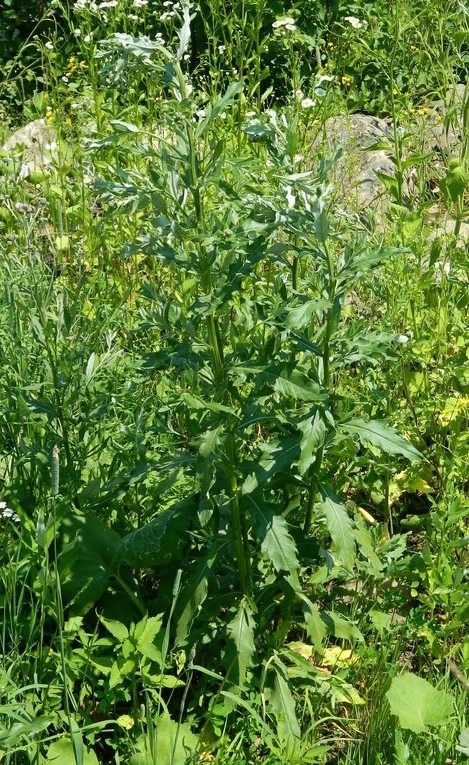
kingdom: Plantae
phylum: Tracheophyta
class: Magnoliopsida
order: Asterales
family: Asteraceae
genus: Cirsium
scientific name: Cirsium arvense
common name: Creeping thistle
